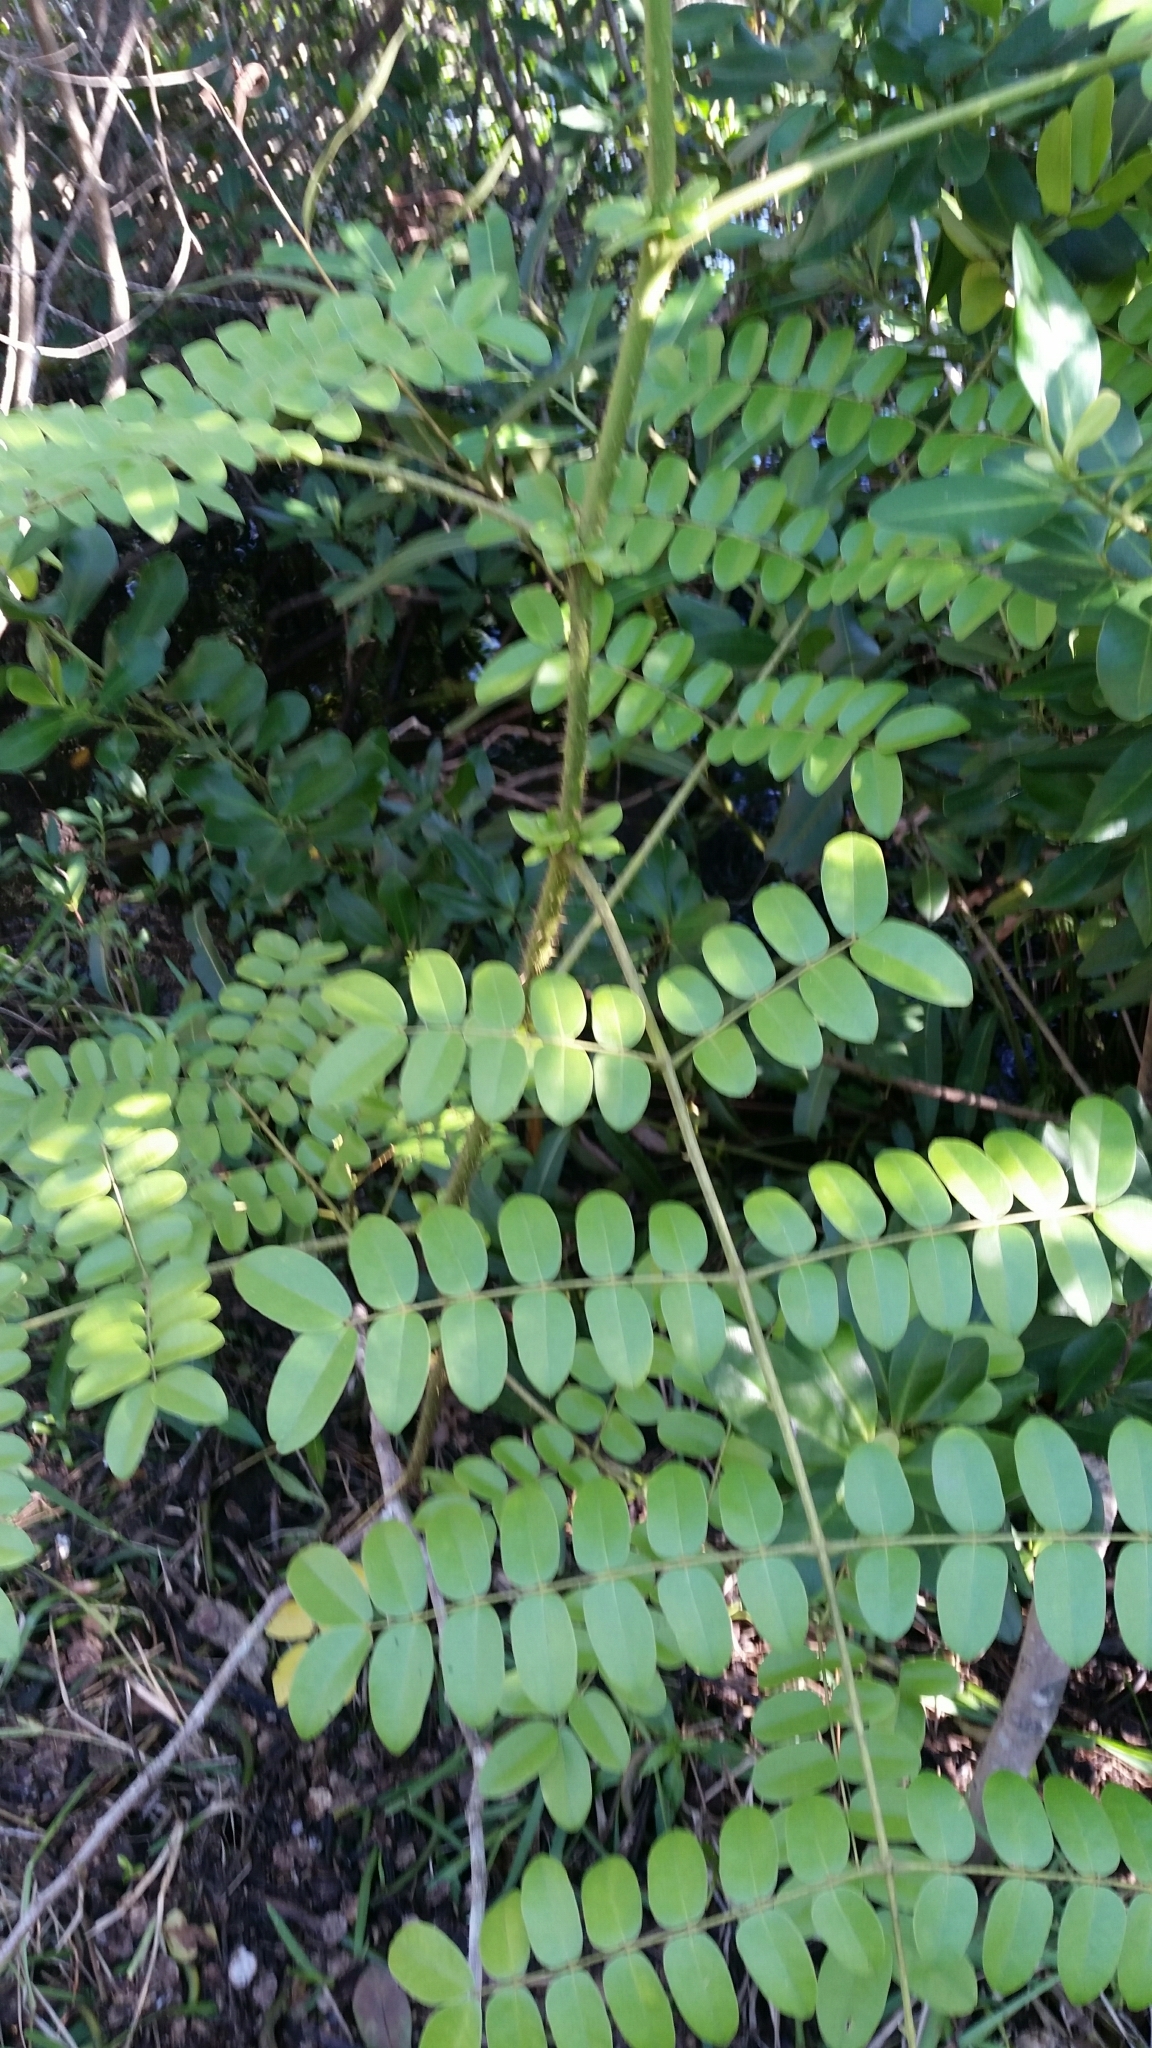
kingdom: Plantae
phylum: Tracheophyta
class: Magnoliopsida
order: Fabales
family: Fabaceae
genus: Guilandina
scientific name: Guilandina bonduc
